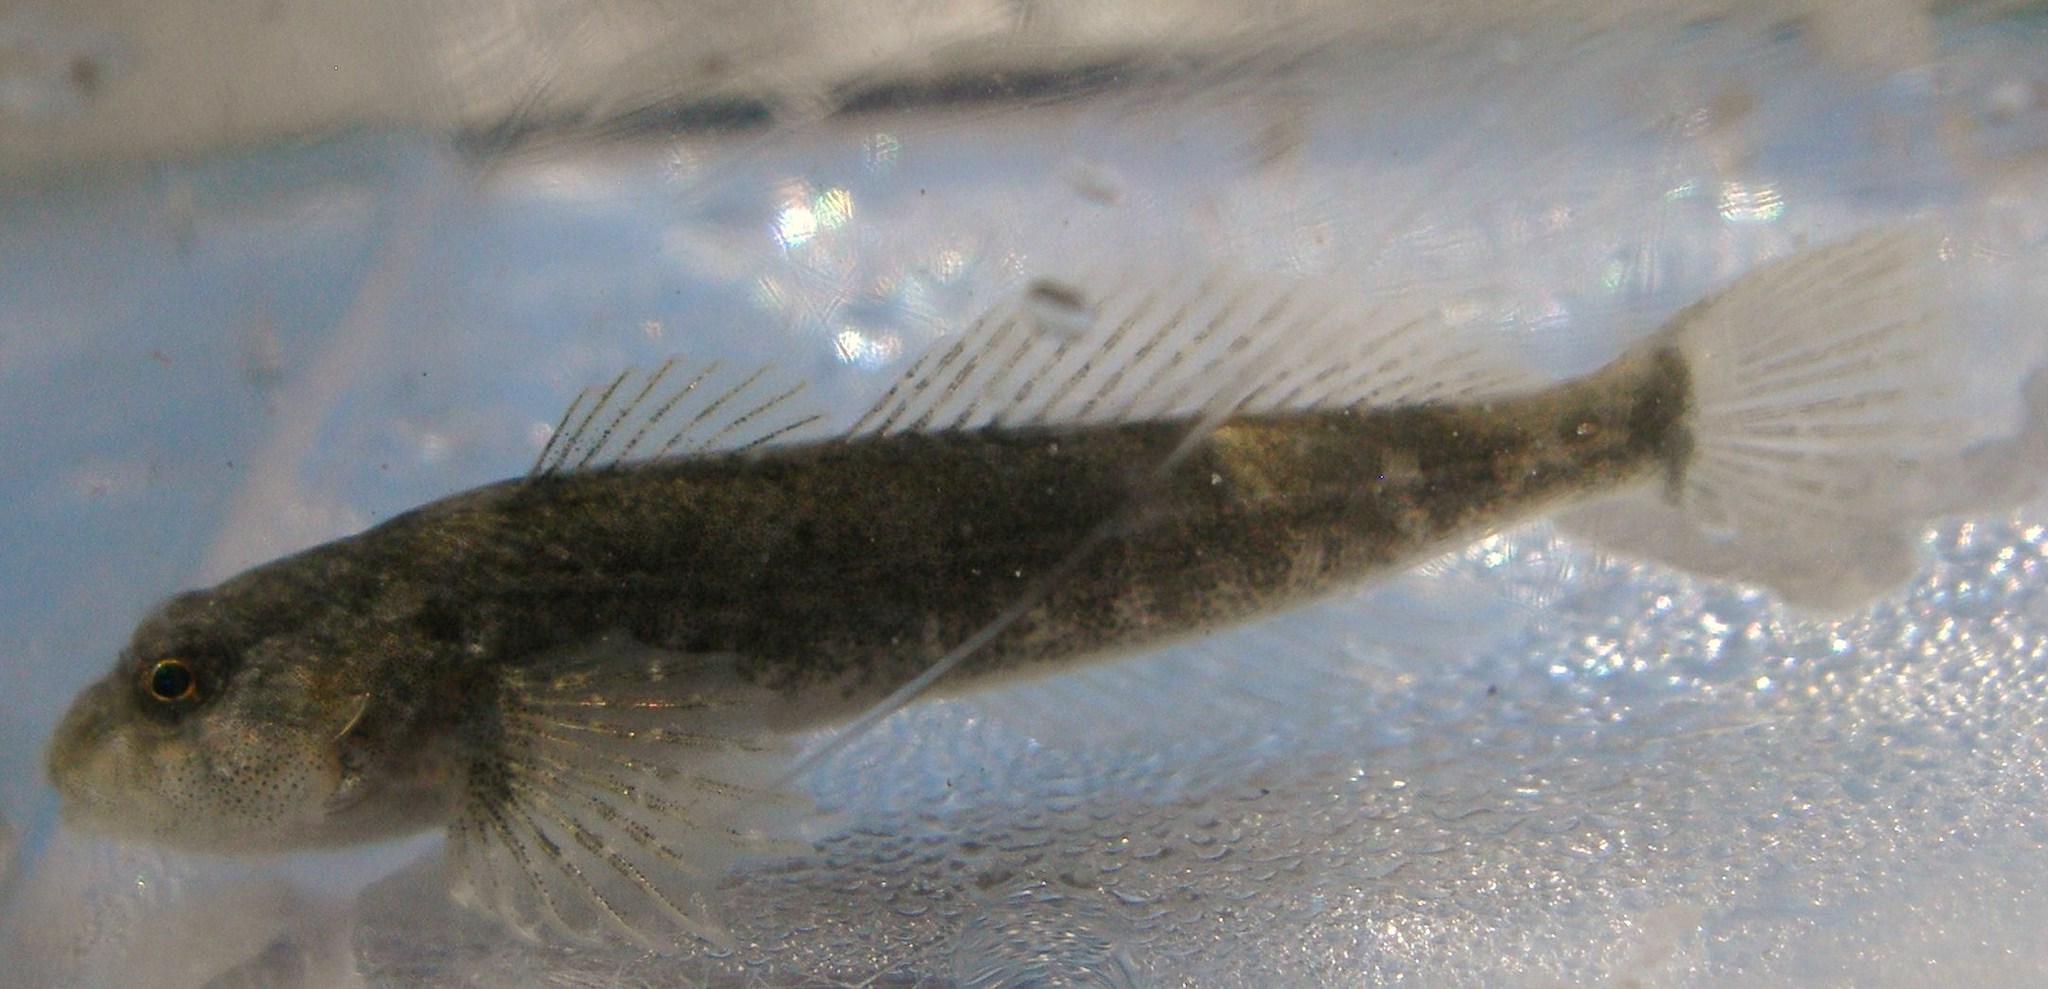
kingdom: Animalia
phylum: Chordata
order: Scorpaeniformes
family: Cottidae
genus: Cottus
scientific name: Cottus gobio
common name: Bullhead
